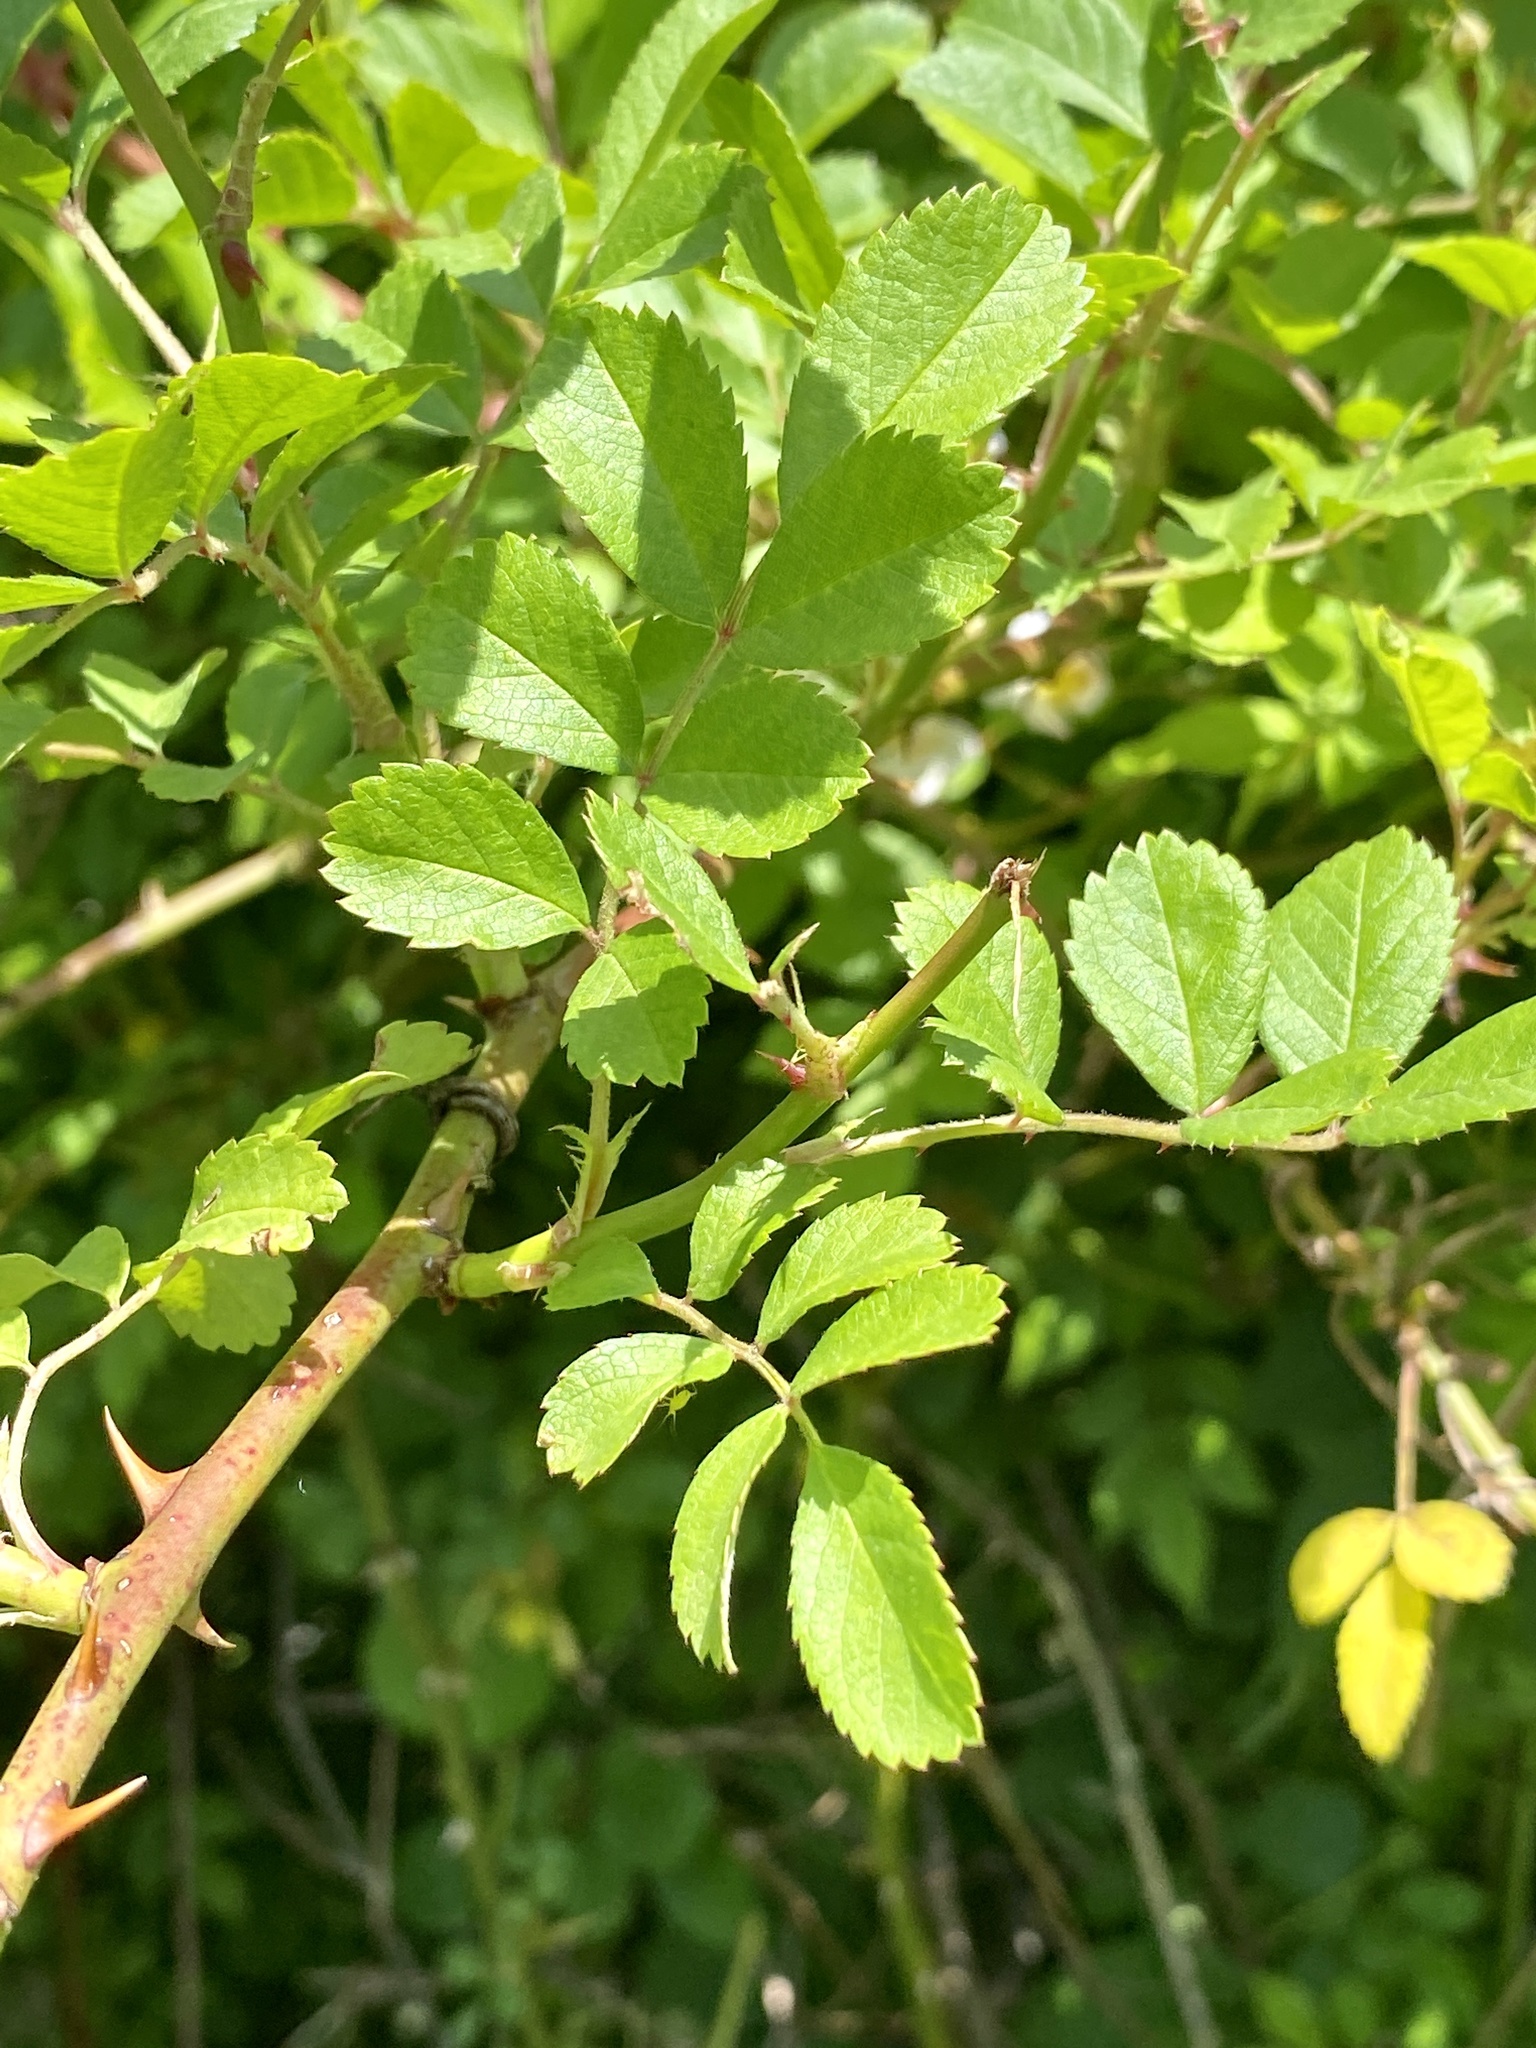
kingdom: Plantae
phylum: Tracheophyta
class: Magnoliopsida
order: Rosales
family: Rosaceae
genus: Rosa
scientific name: Rosa multiflora
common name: Multiflora rose
